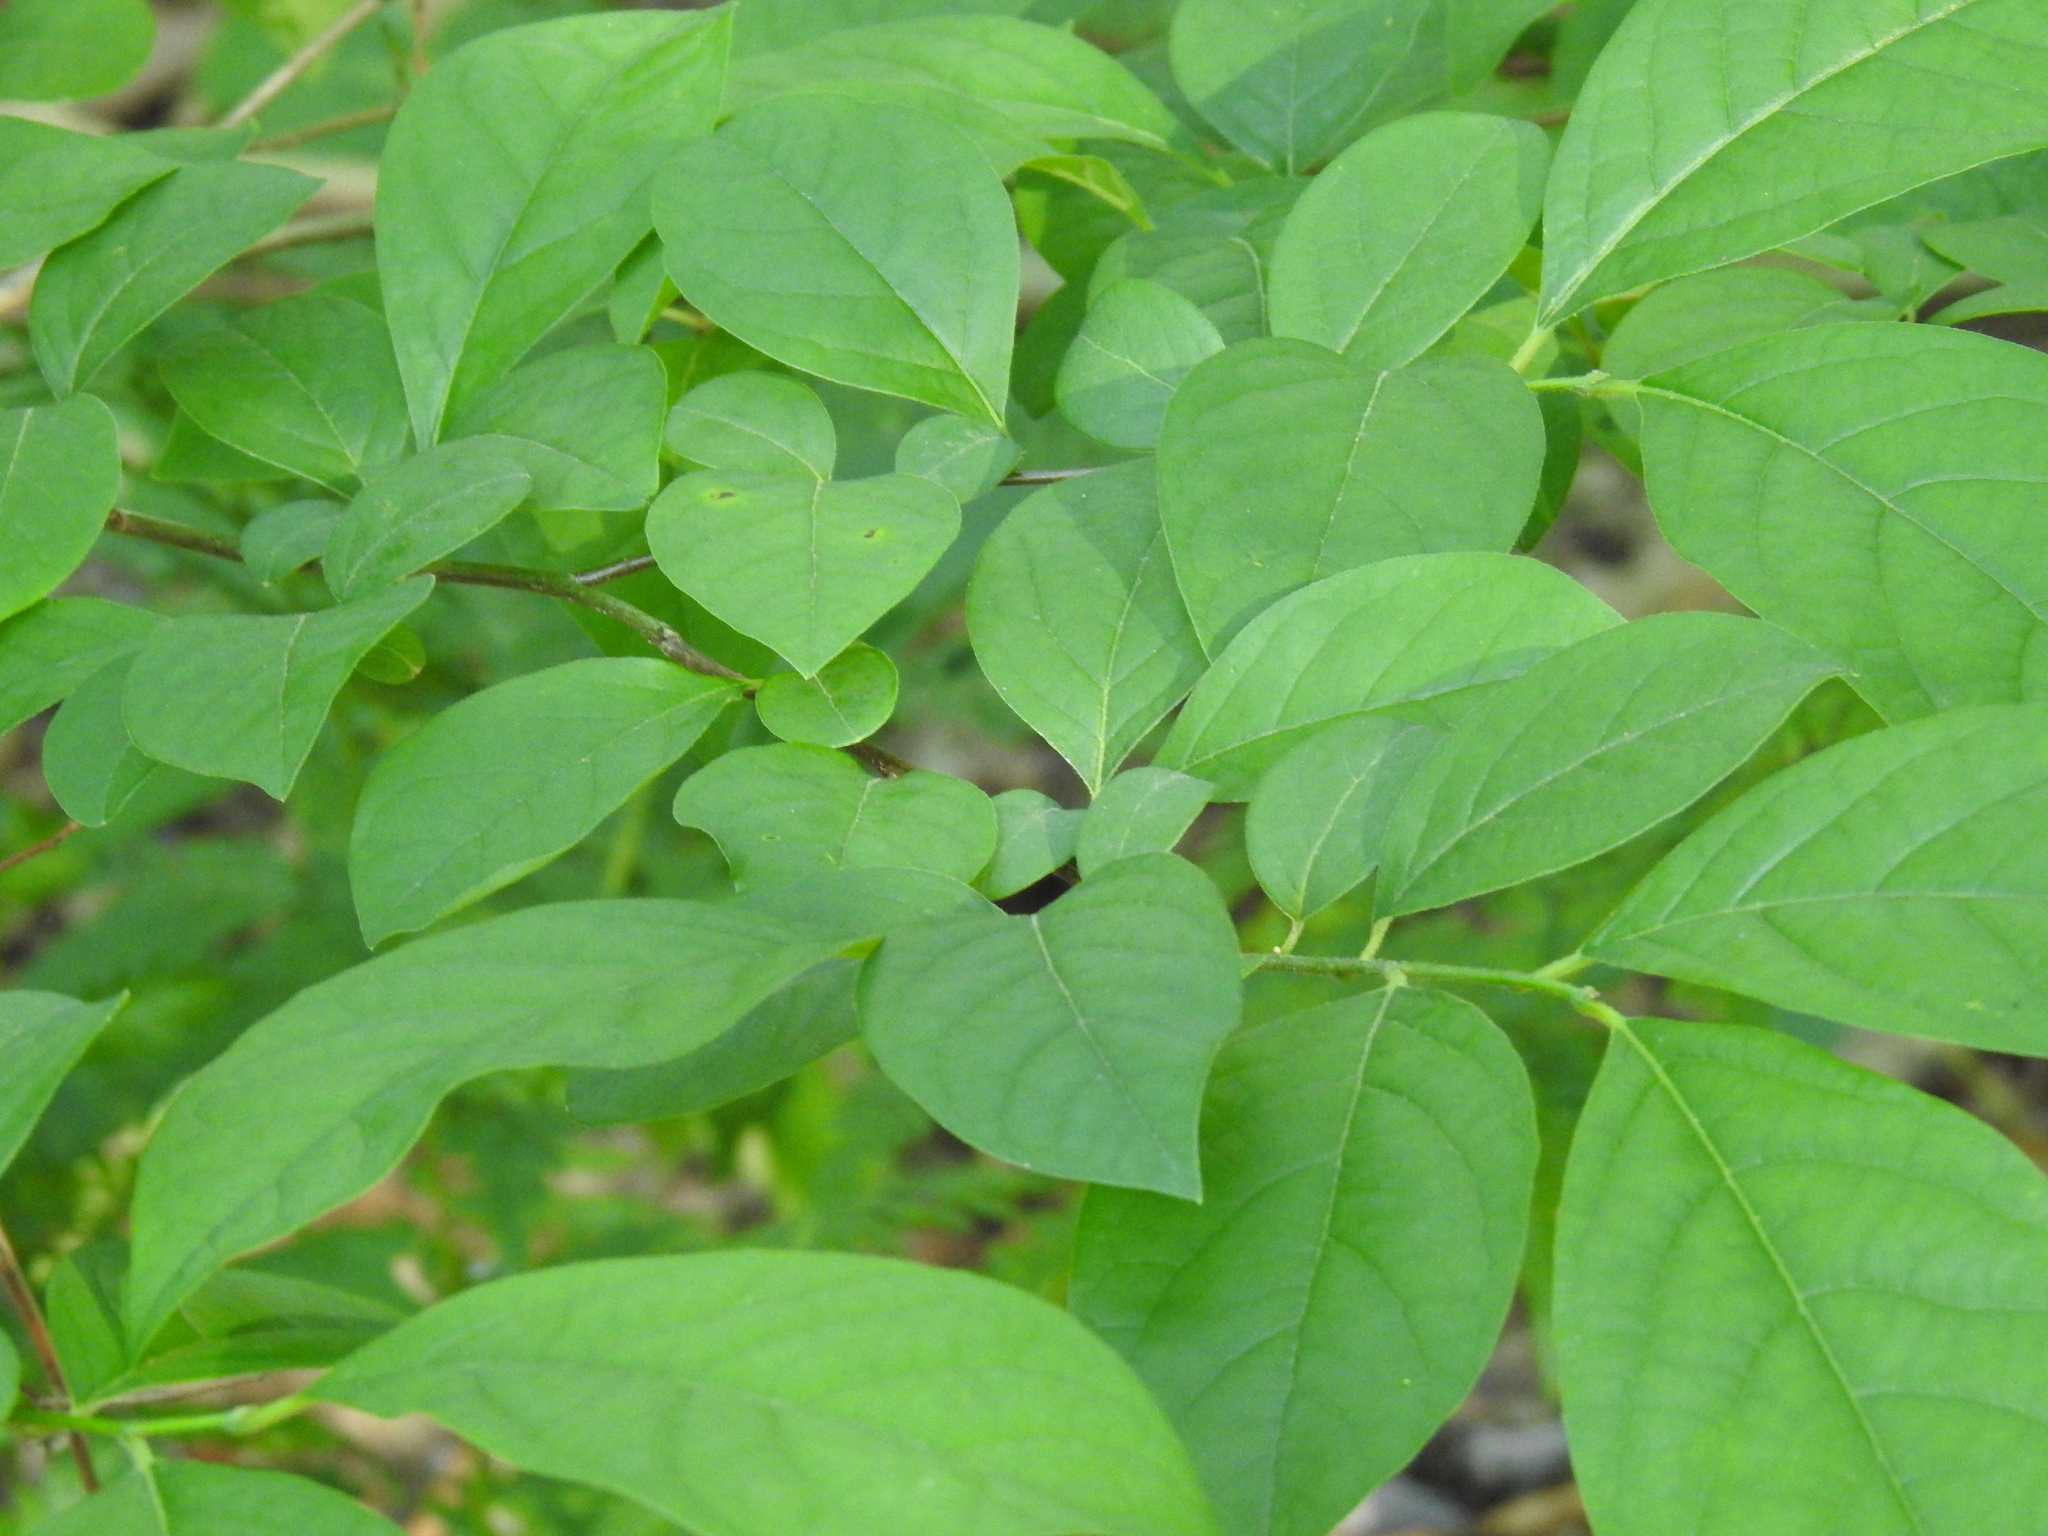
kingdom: Plantae
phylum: Tracheophyta
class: Magnoliopsida
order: Laurales
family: Lauraceae
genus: Lindera
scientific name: Lindera benzoin
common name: Spicebush
